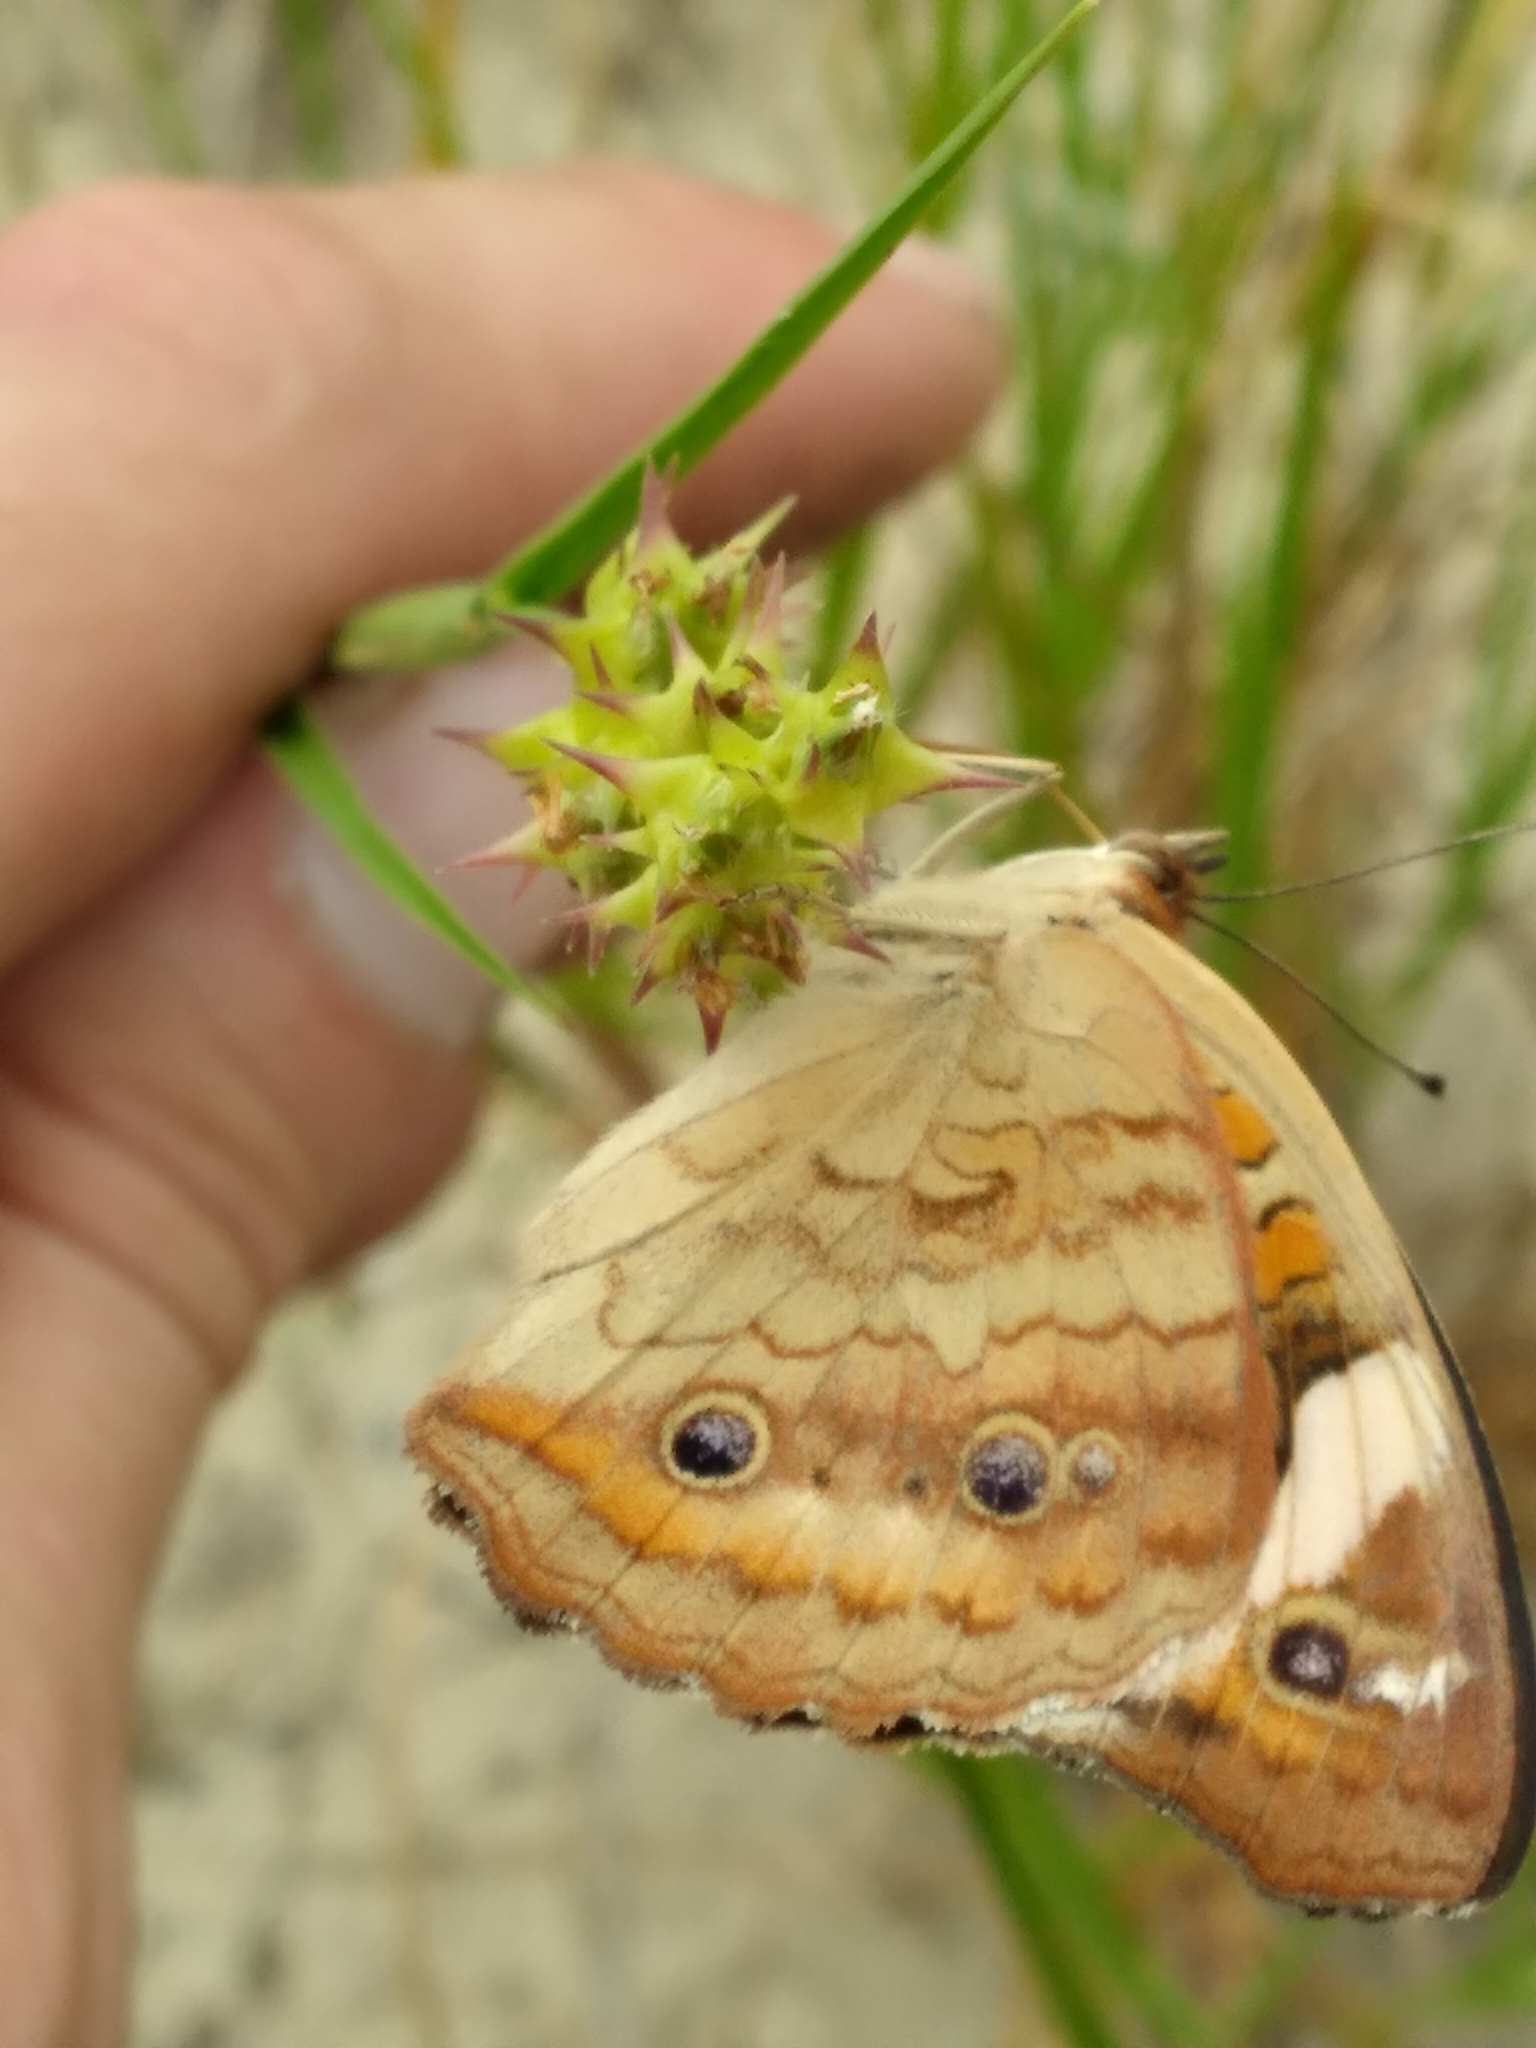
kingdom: Animalia
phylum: Arthropoda
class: Insecta
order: Lepidoptera
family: Nymphalidae
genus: Junonia
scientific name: Junonia coenia
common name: Common buckeye
